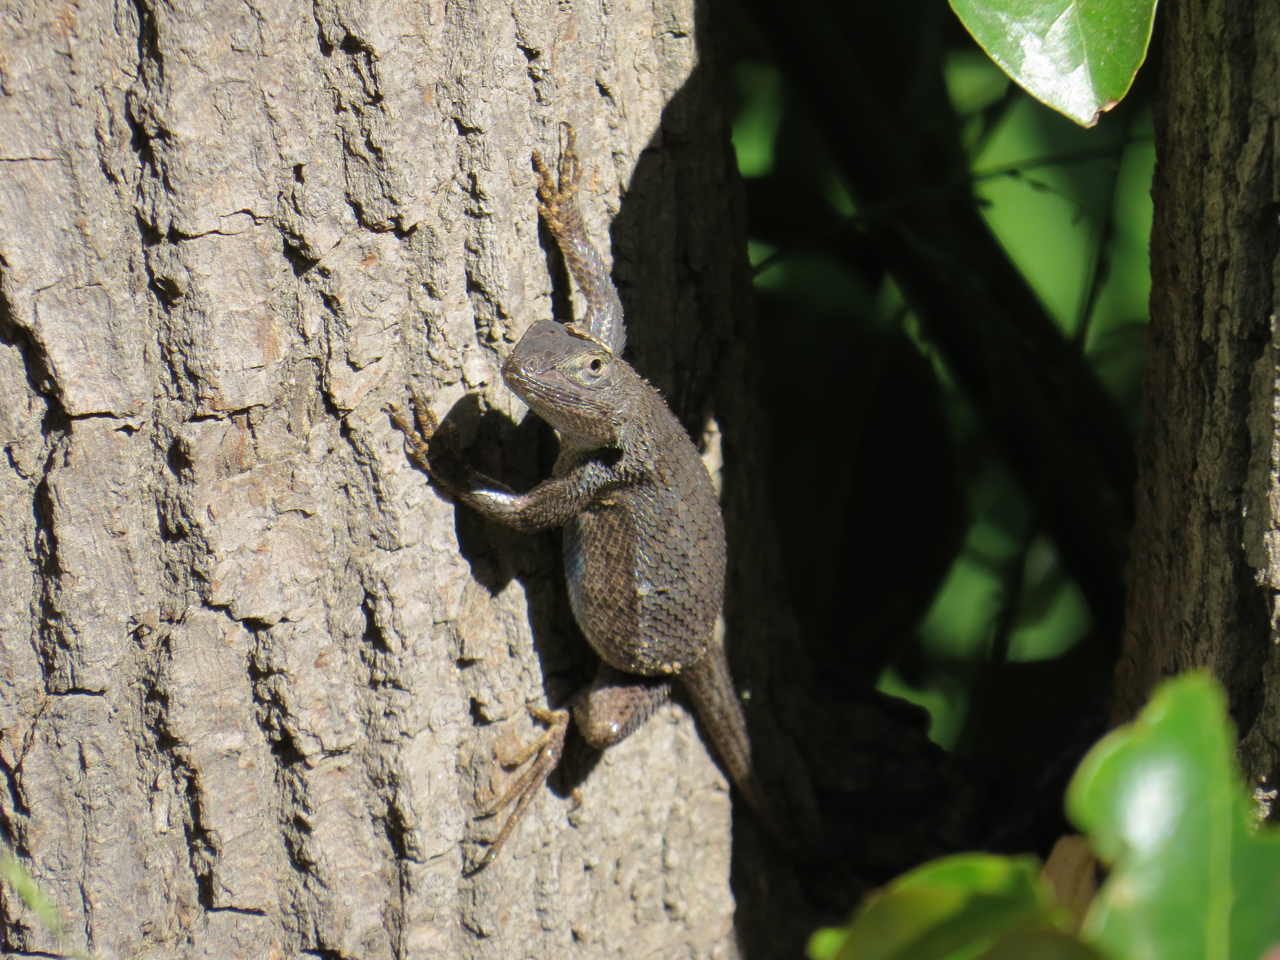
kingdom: Animalia
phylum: Chordata
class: Squamata
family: Phrynosomatidae
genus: Sceloporus
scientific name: Sceloporus occidentalis
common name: Western fence lizard
